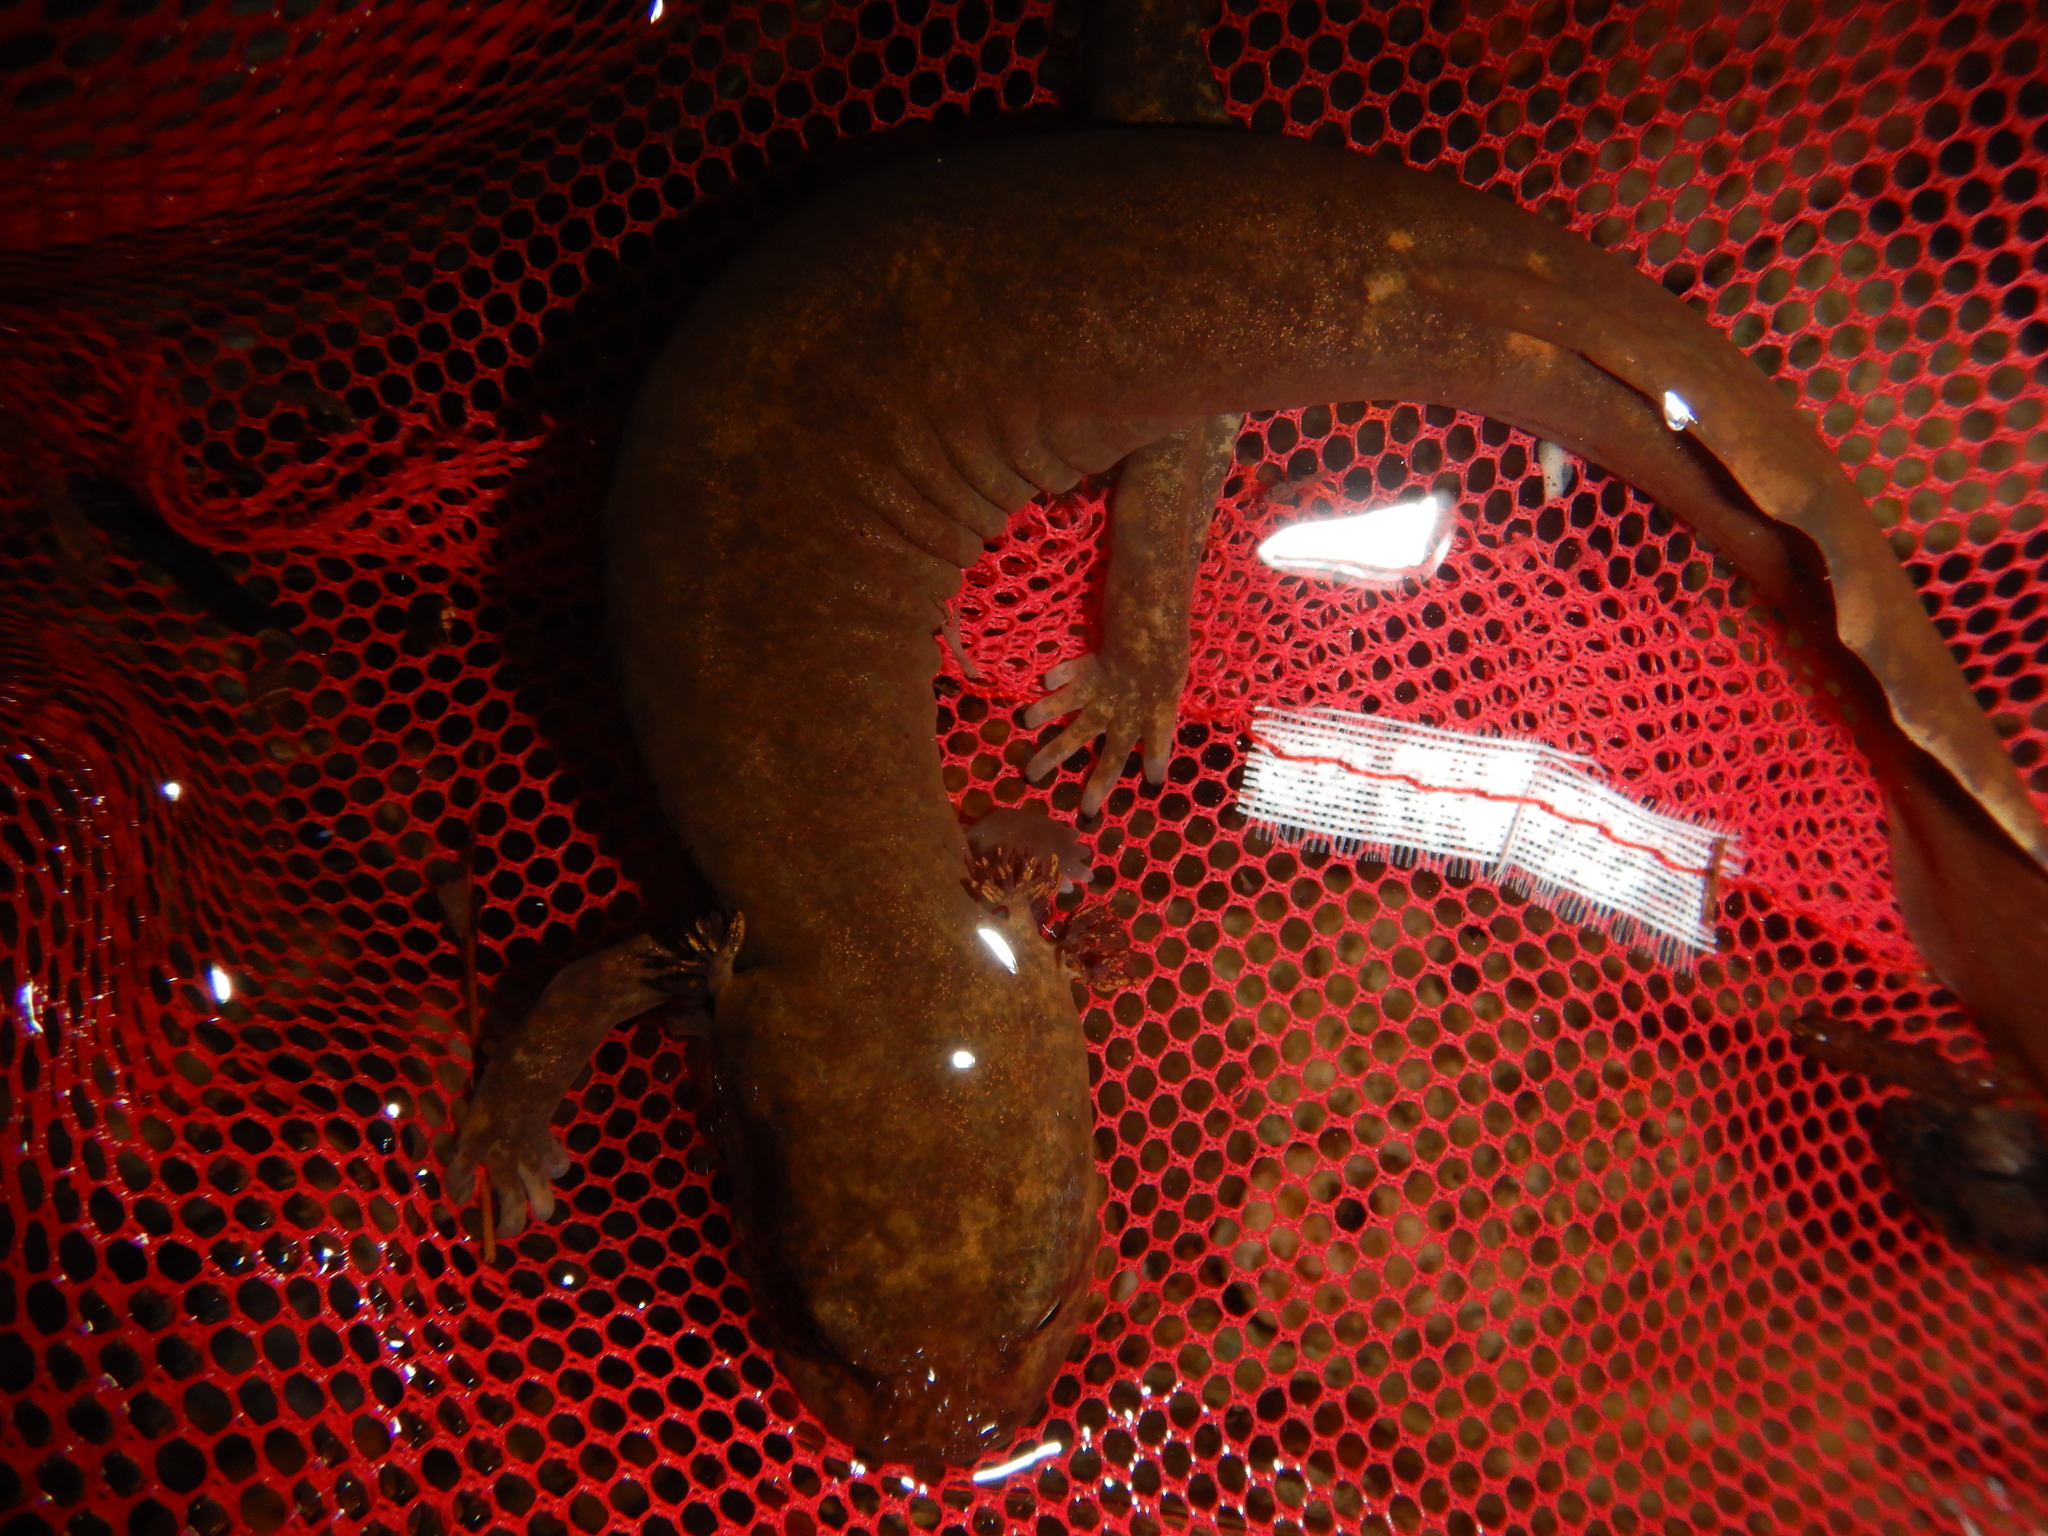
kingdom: Animalia
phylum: Chordata
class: Amphibia
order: Caudata
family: Ambystomatidae
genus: Dicamptodon
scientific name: Dicamptodon tenebrosus
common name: Coastal giant salamander
